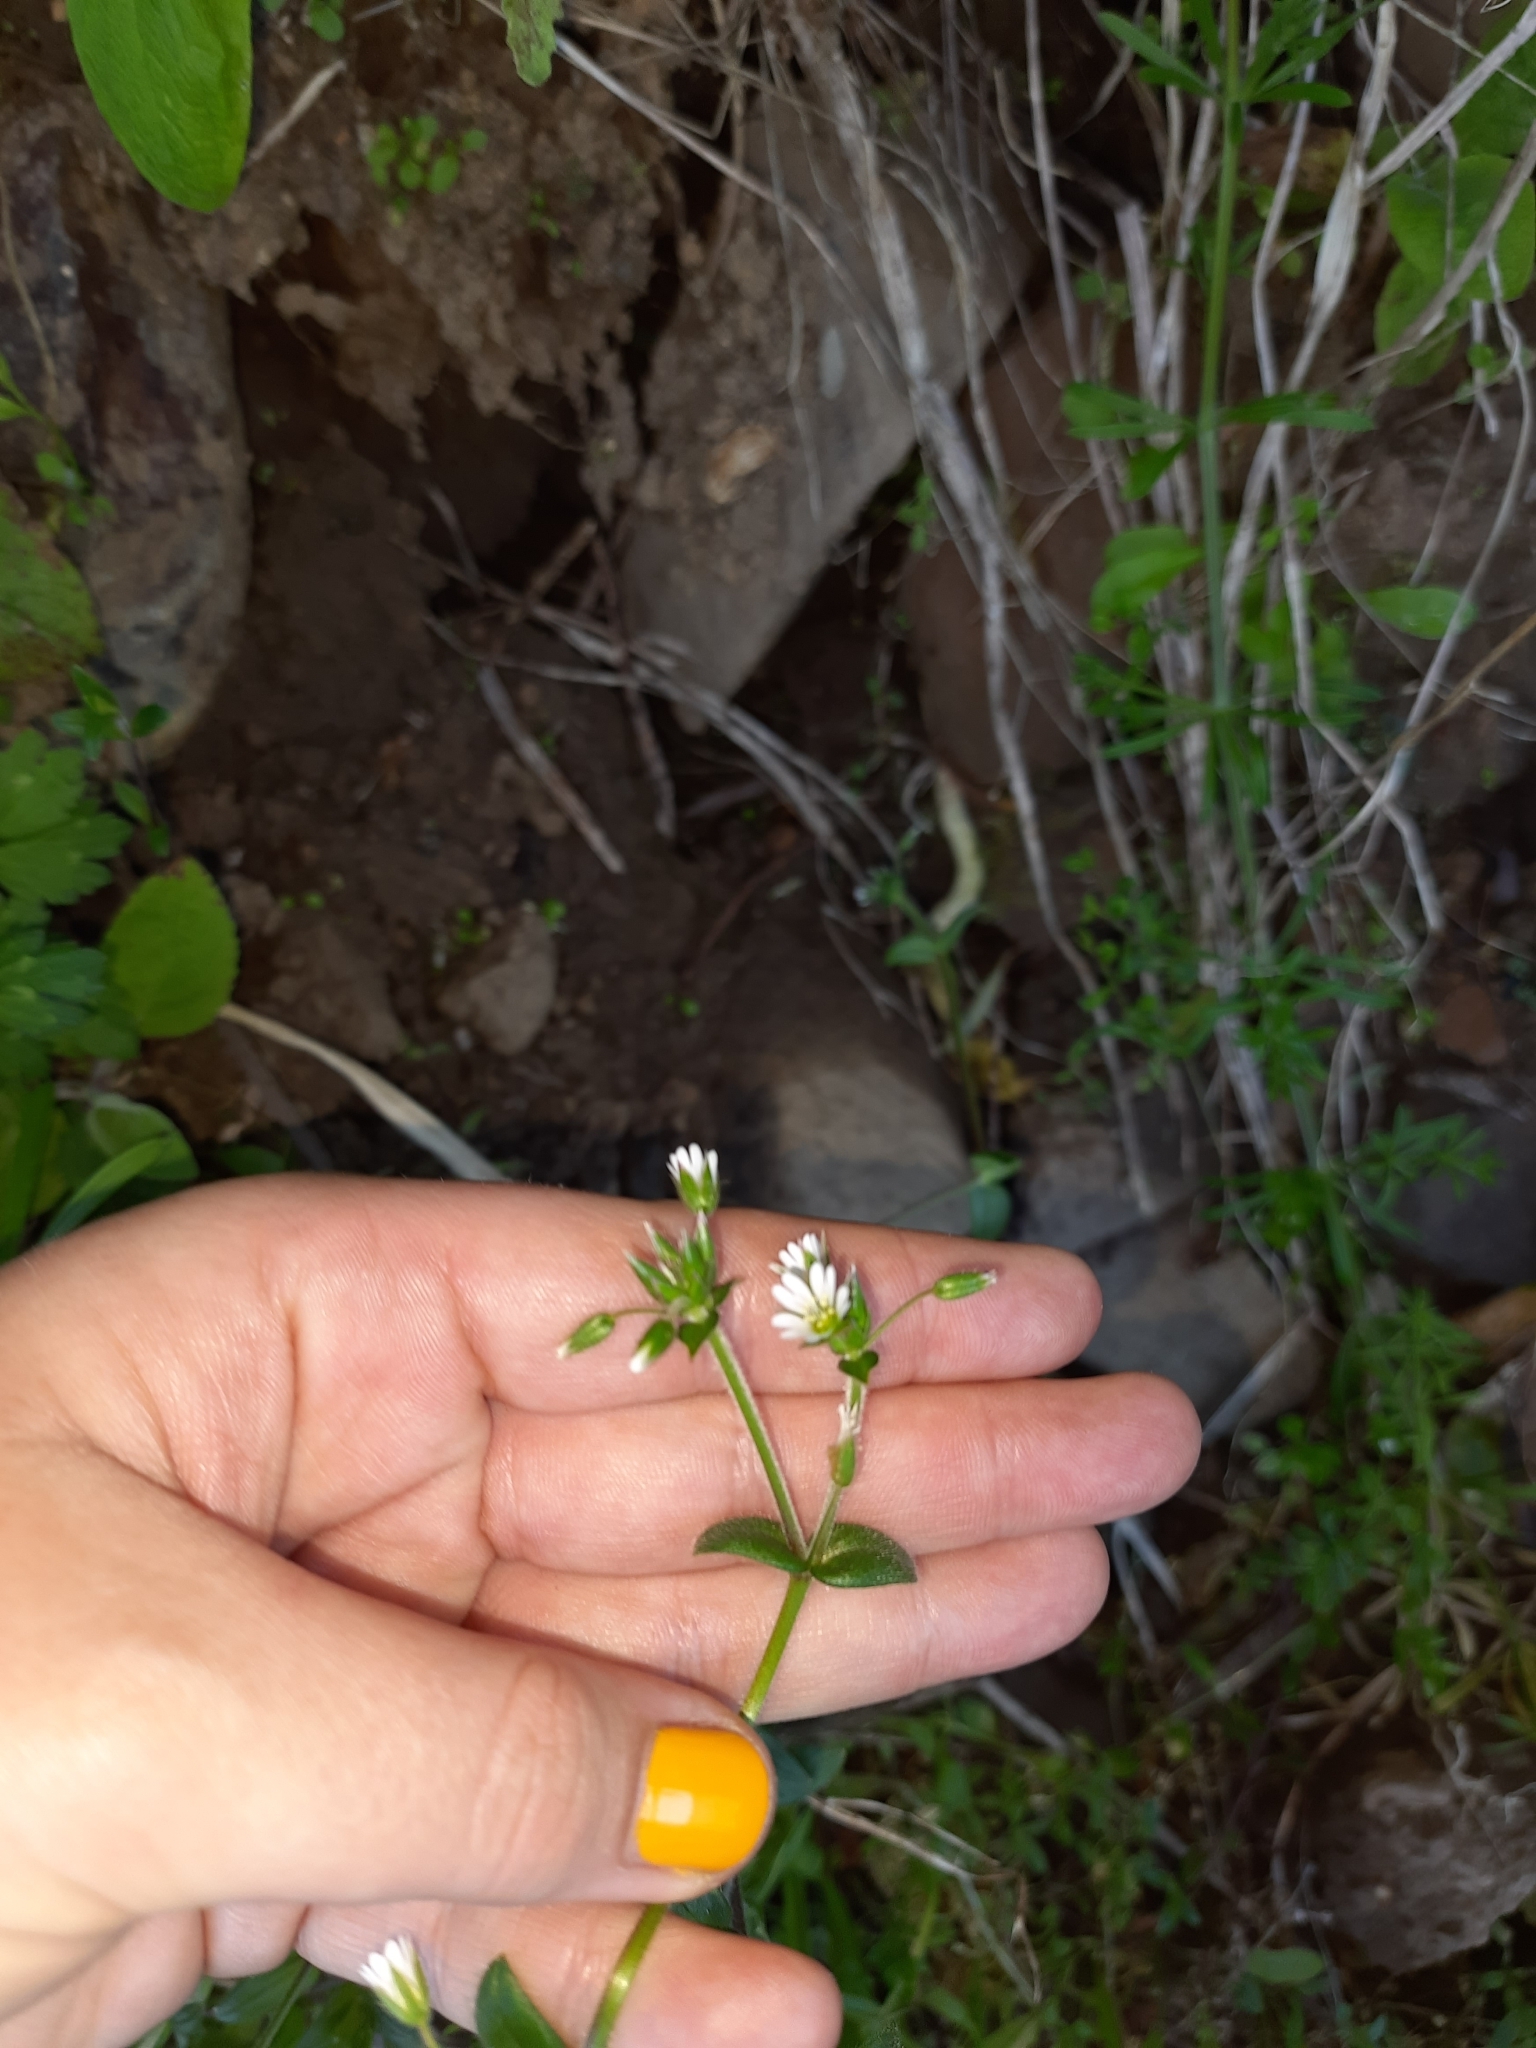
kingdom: Plantae
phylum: Tracheophyta
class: Magnoliopsida
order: Caryophyllales
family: Caryophyllaceae
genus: Cerastium
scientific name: Cerastium fontanum
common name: Common mouse-ear
